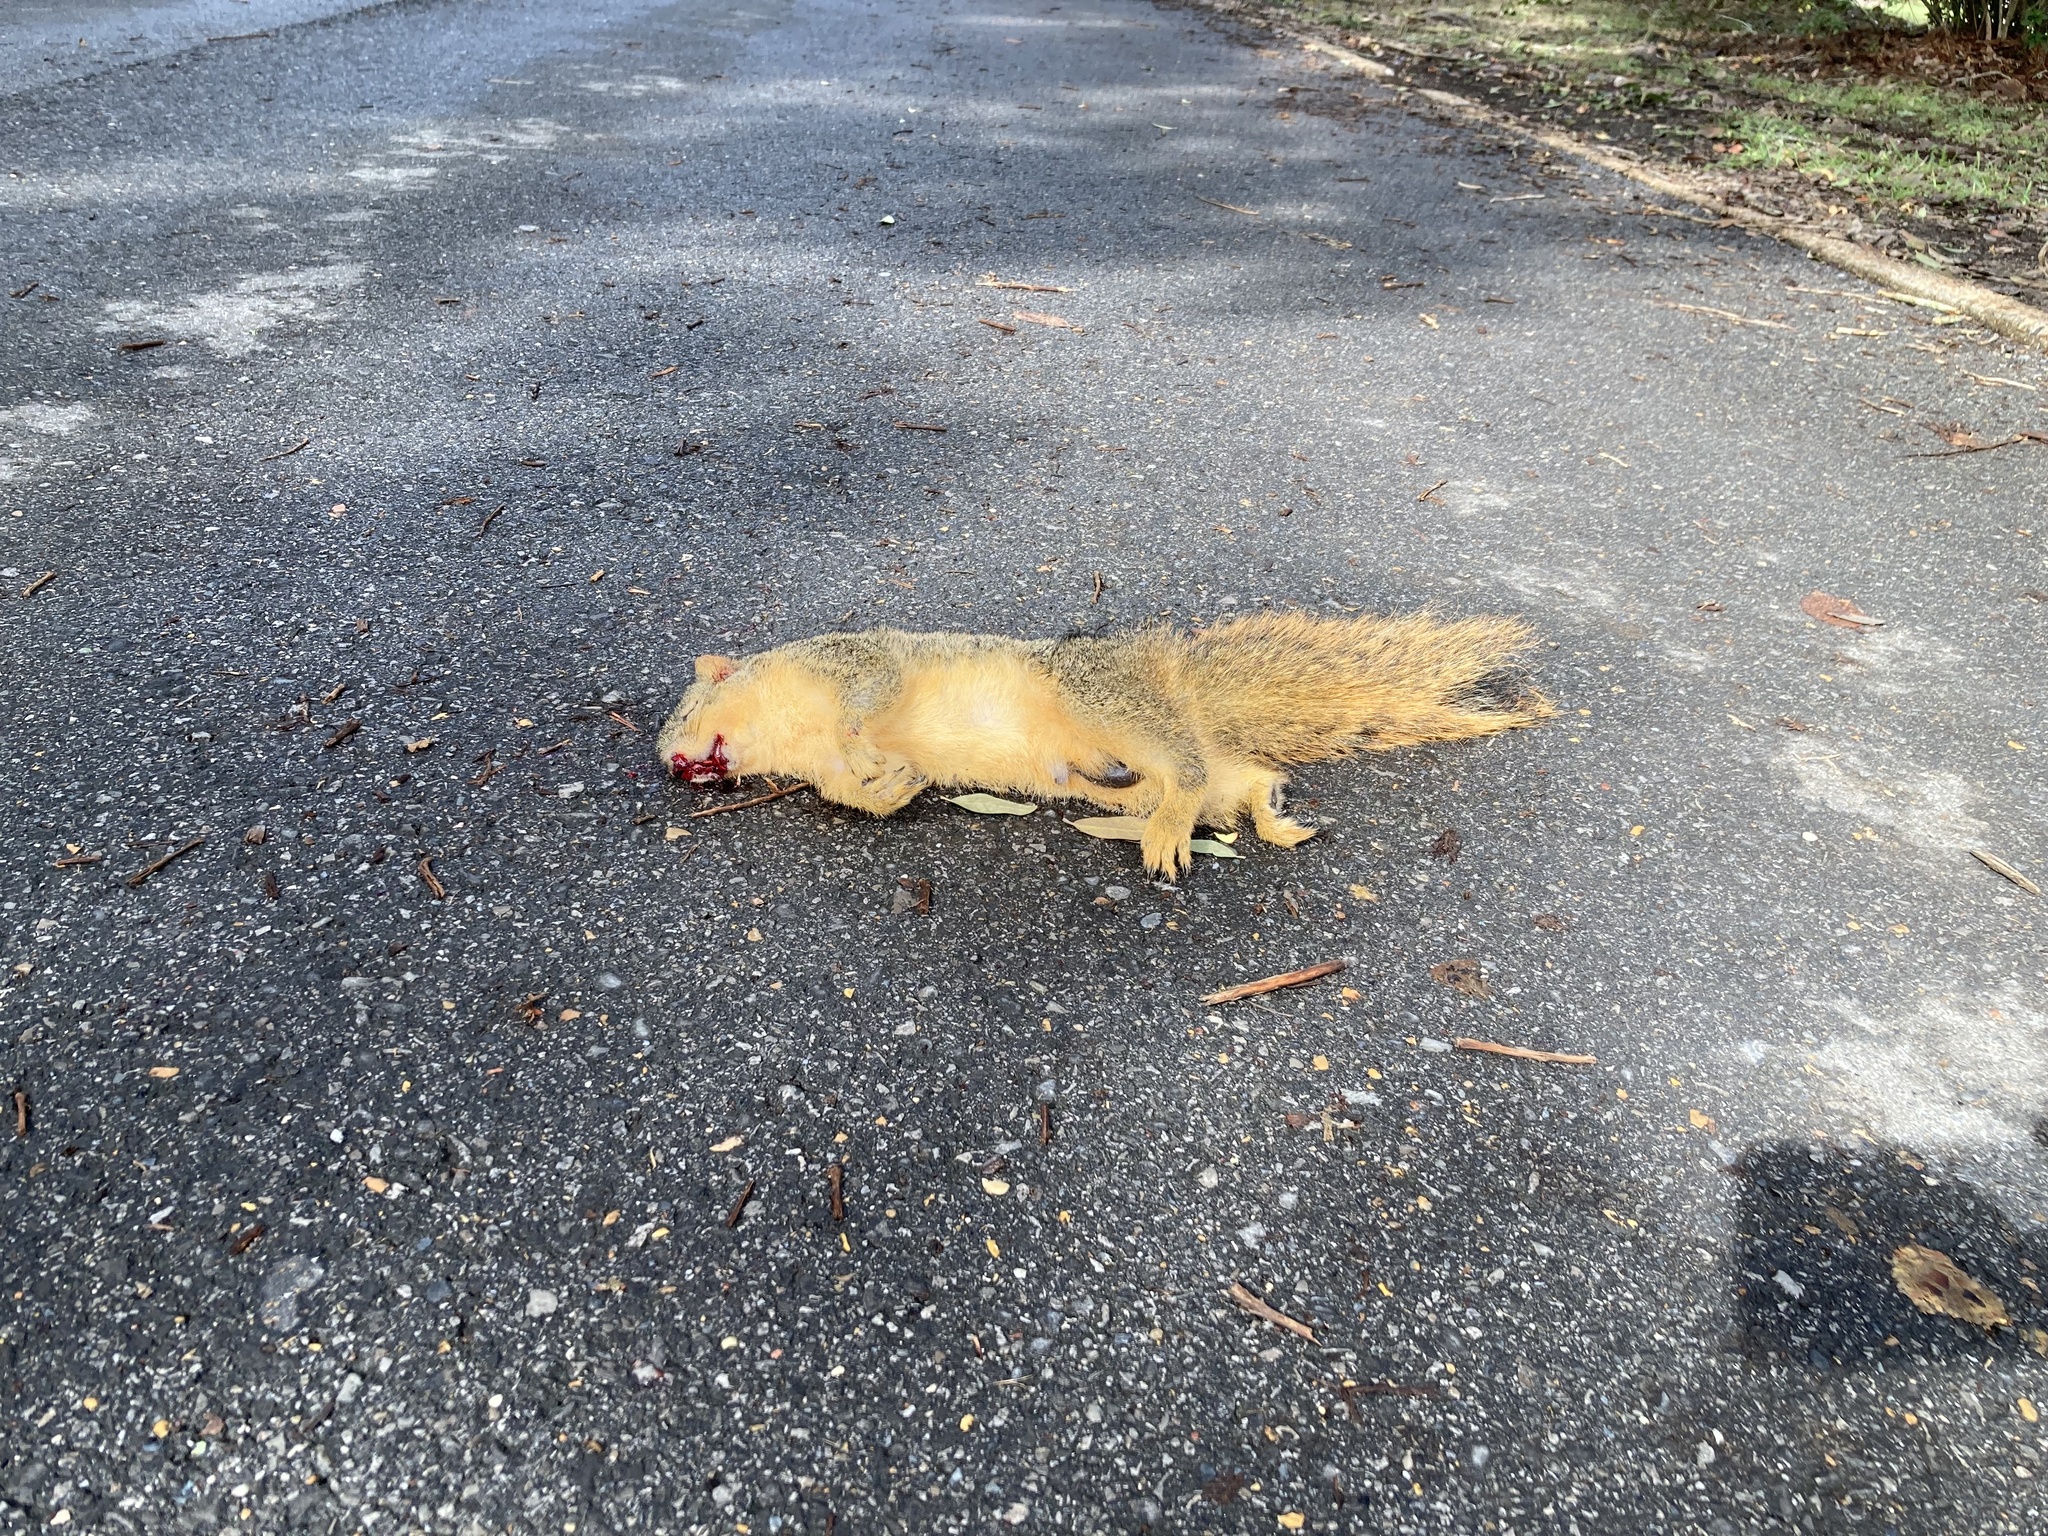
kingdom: Animalia
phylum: Chordata
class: Mammalia
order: Rodentia
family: Sciuridae
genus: Sciurus
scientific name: Sciurus niger
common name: Fox squirrel
